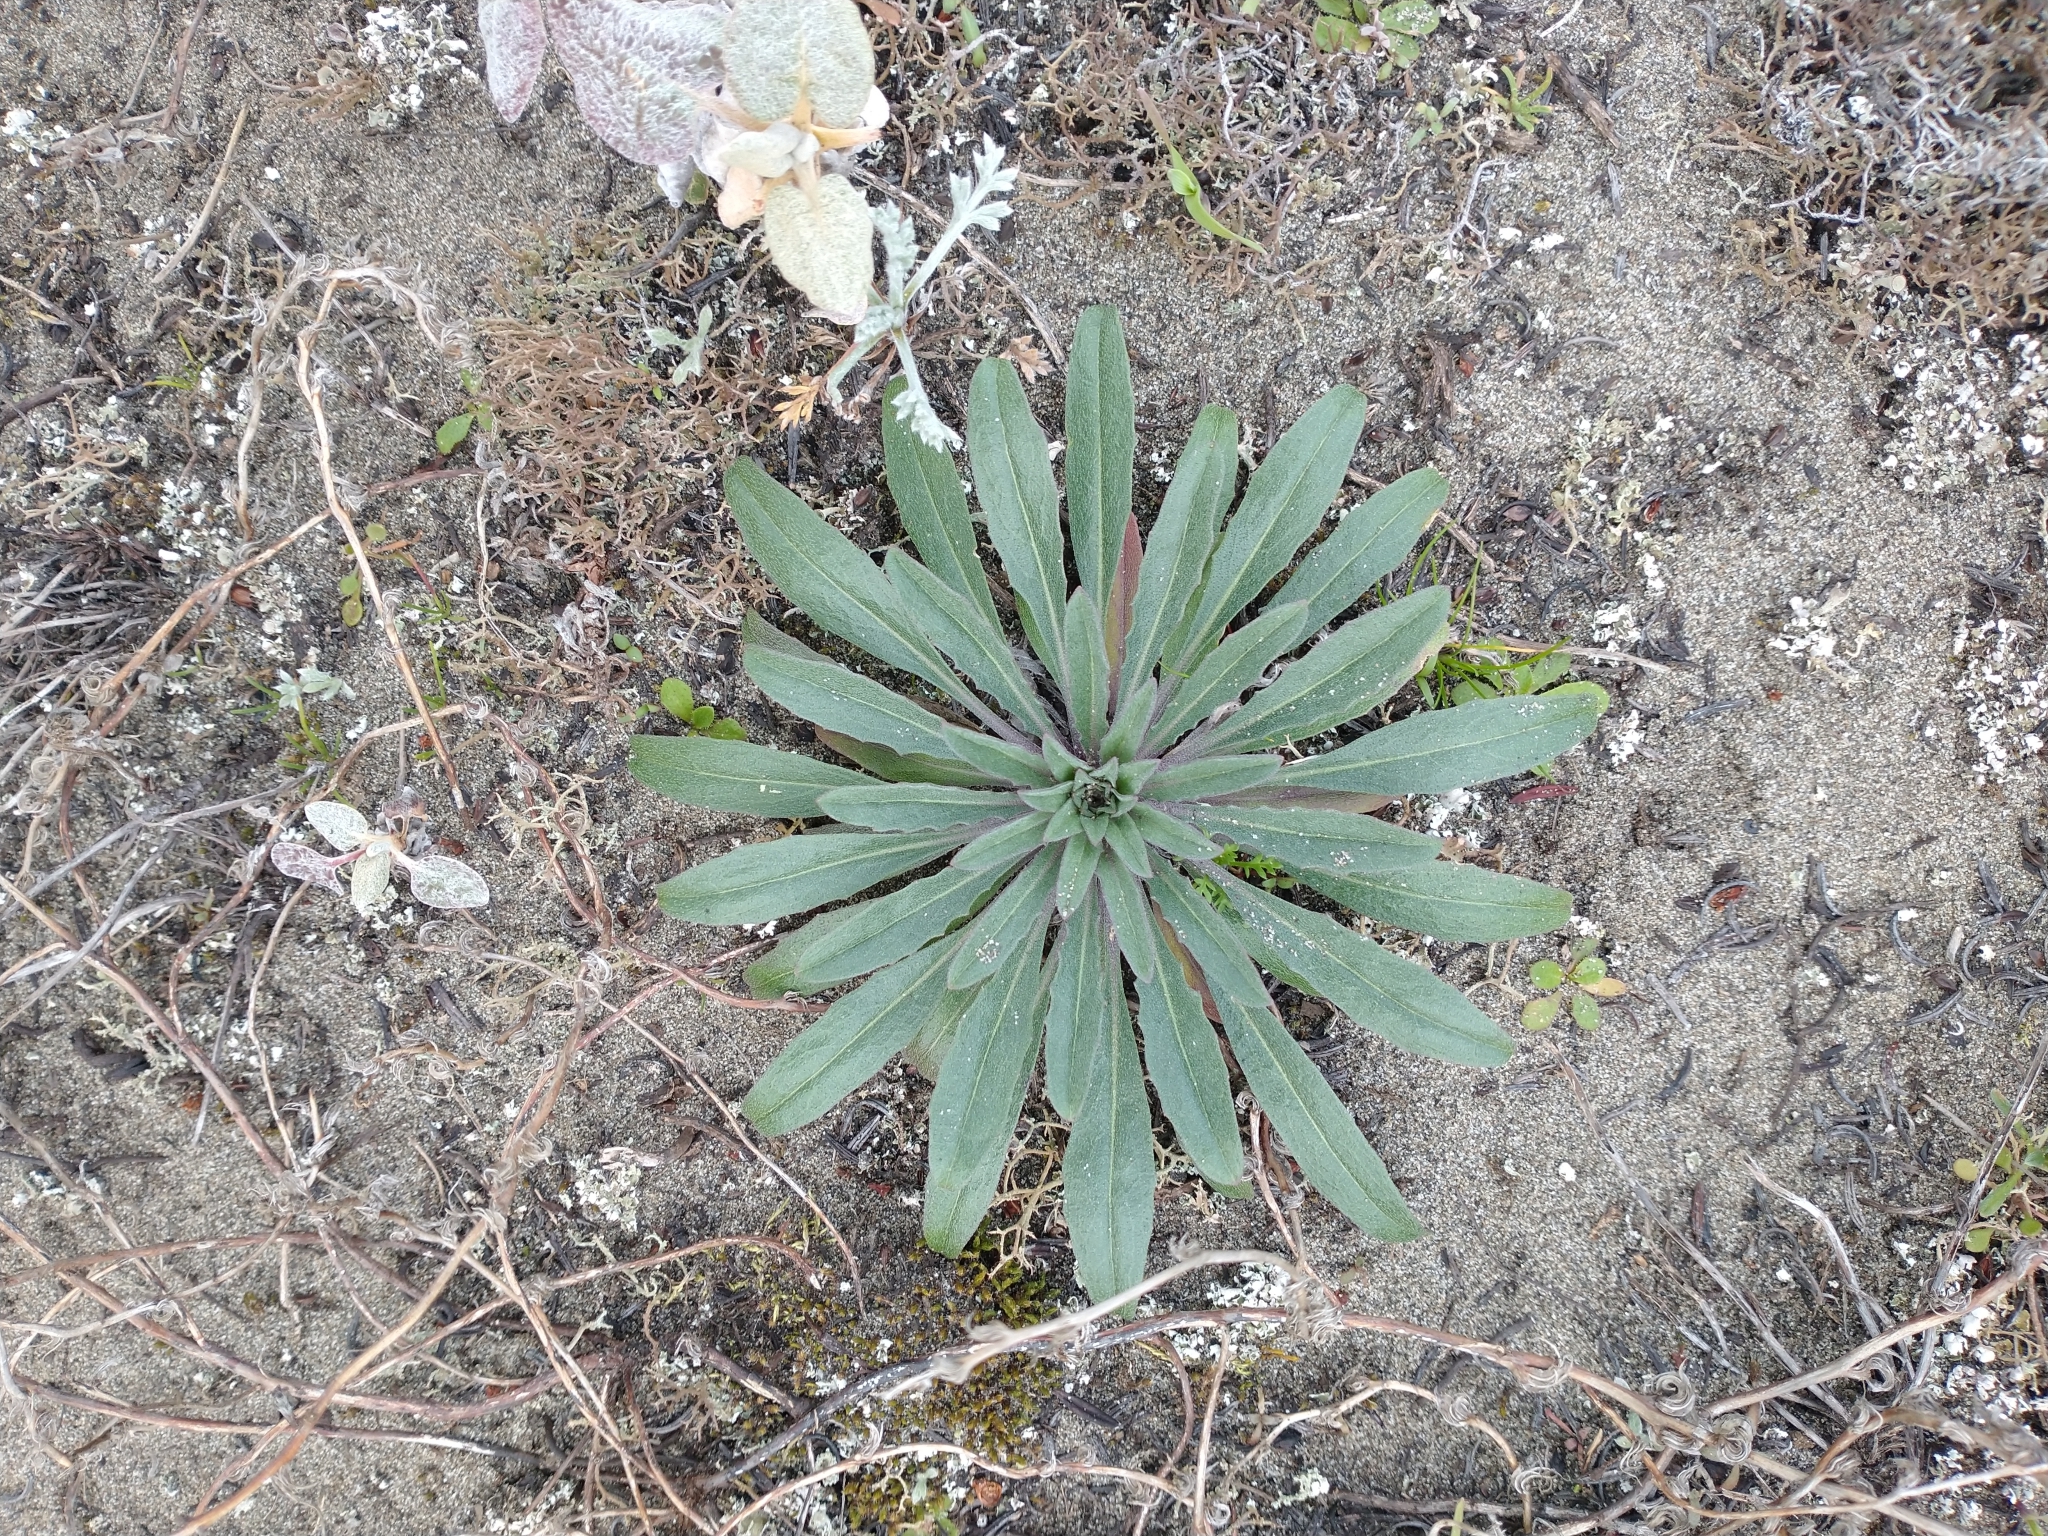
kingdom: Plantae
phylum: Tracheophyta
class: Magnoliopsida
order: Brassicales
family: Brassicaceae
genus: Erysimum
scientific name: Erysimum menziesii
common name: Menzies's wallflower
